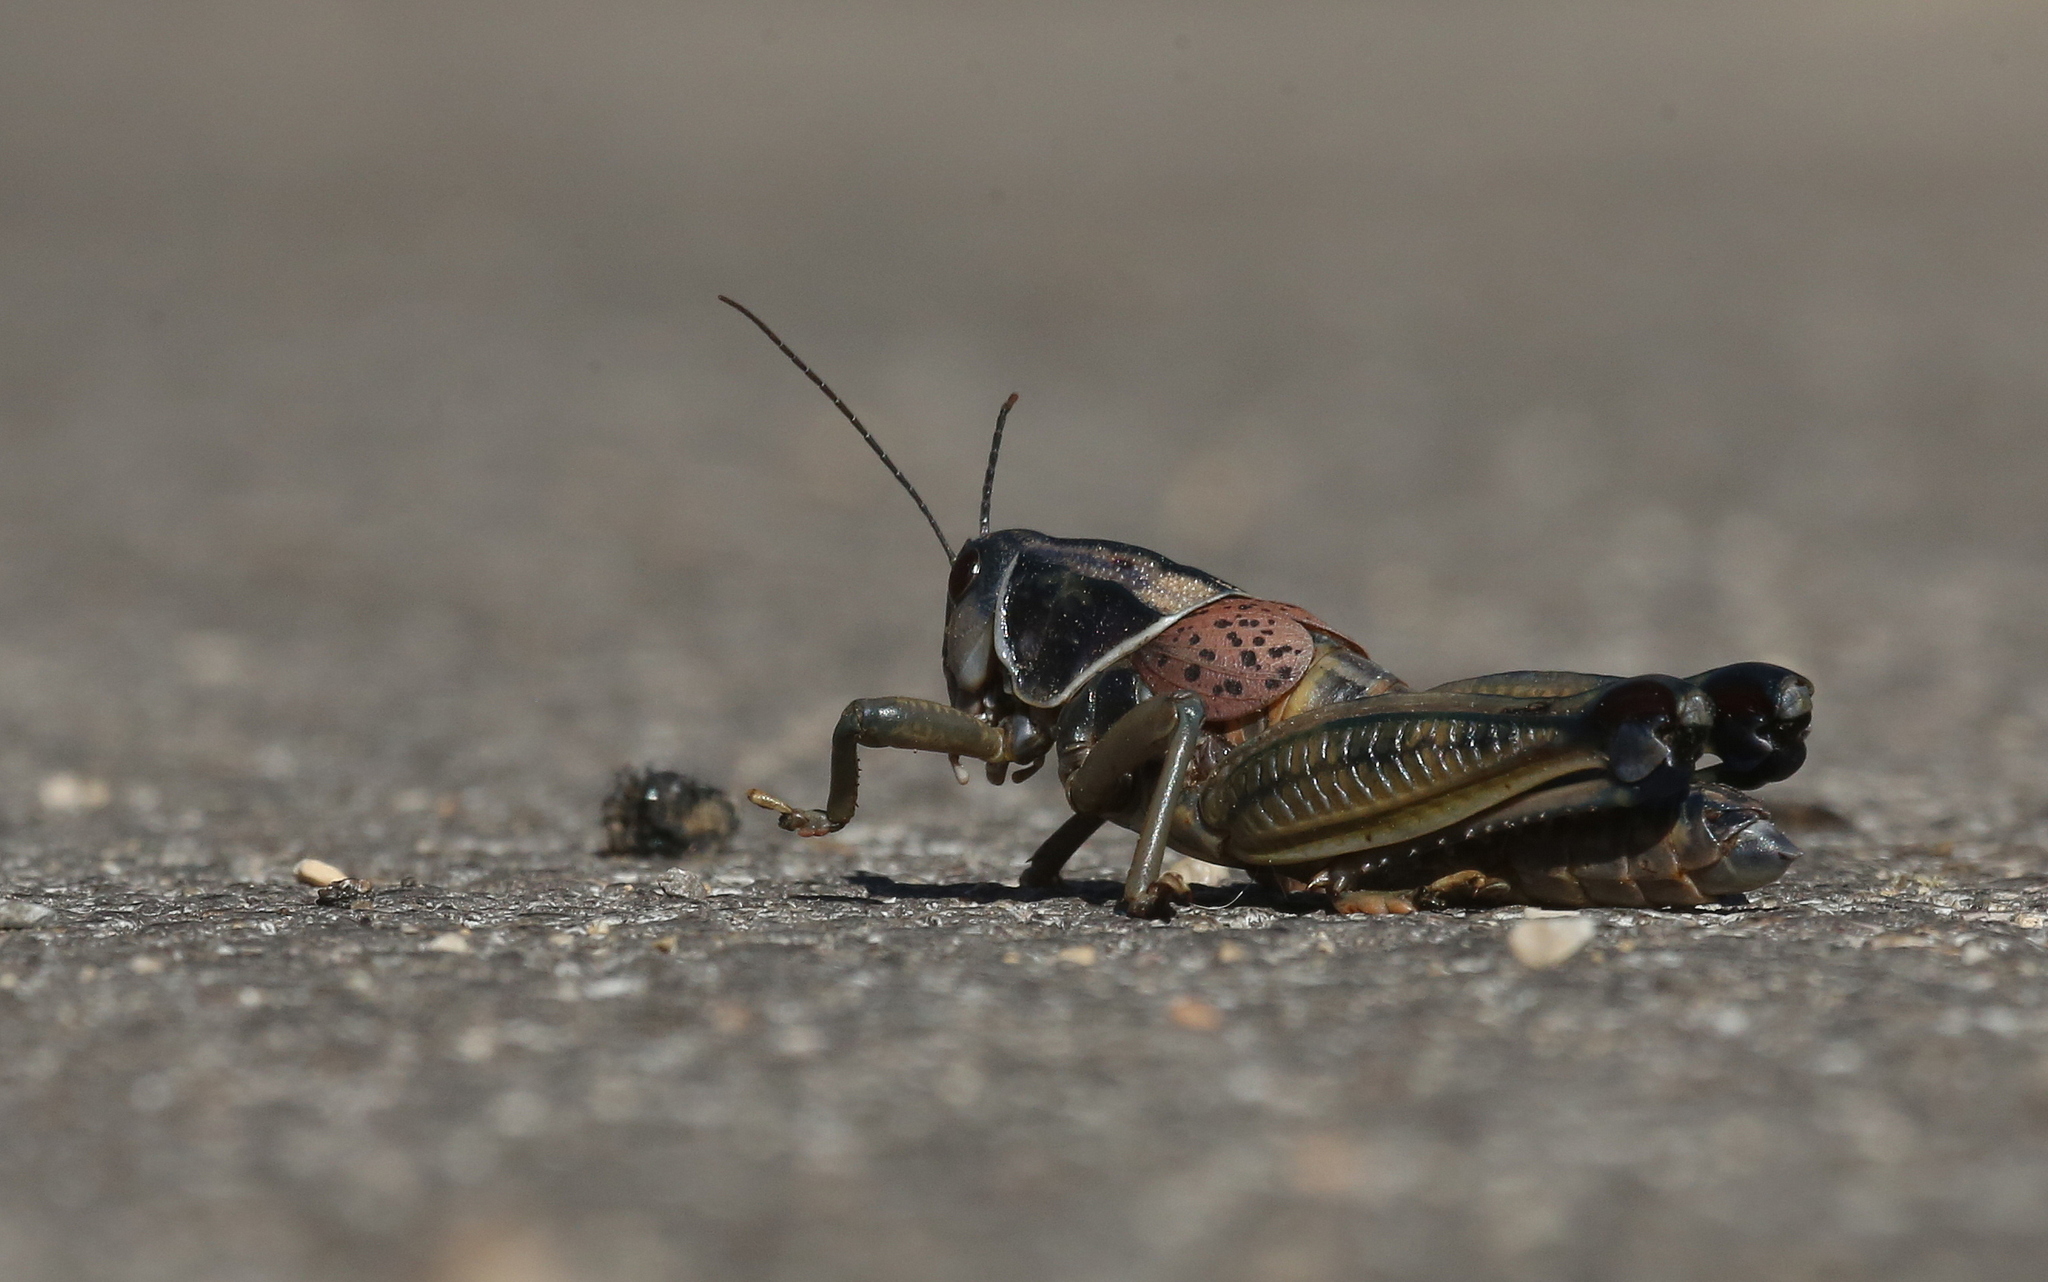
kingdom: Animalia
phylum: Arthropoda
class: Insecta
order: Orthoptera
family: Romaleidae
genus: Brachystola
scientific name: Brachystola magna
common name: Plains lubber grasshopper
